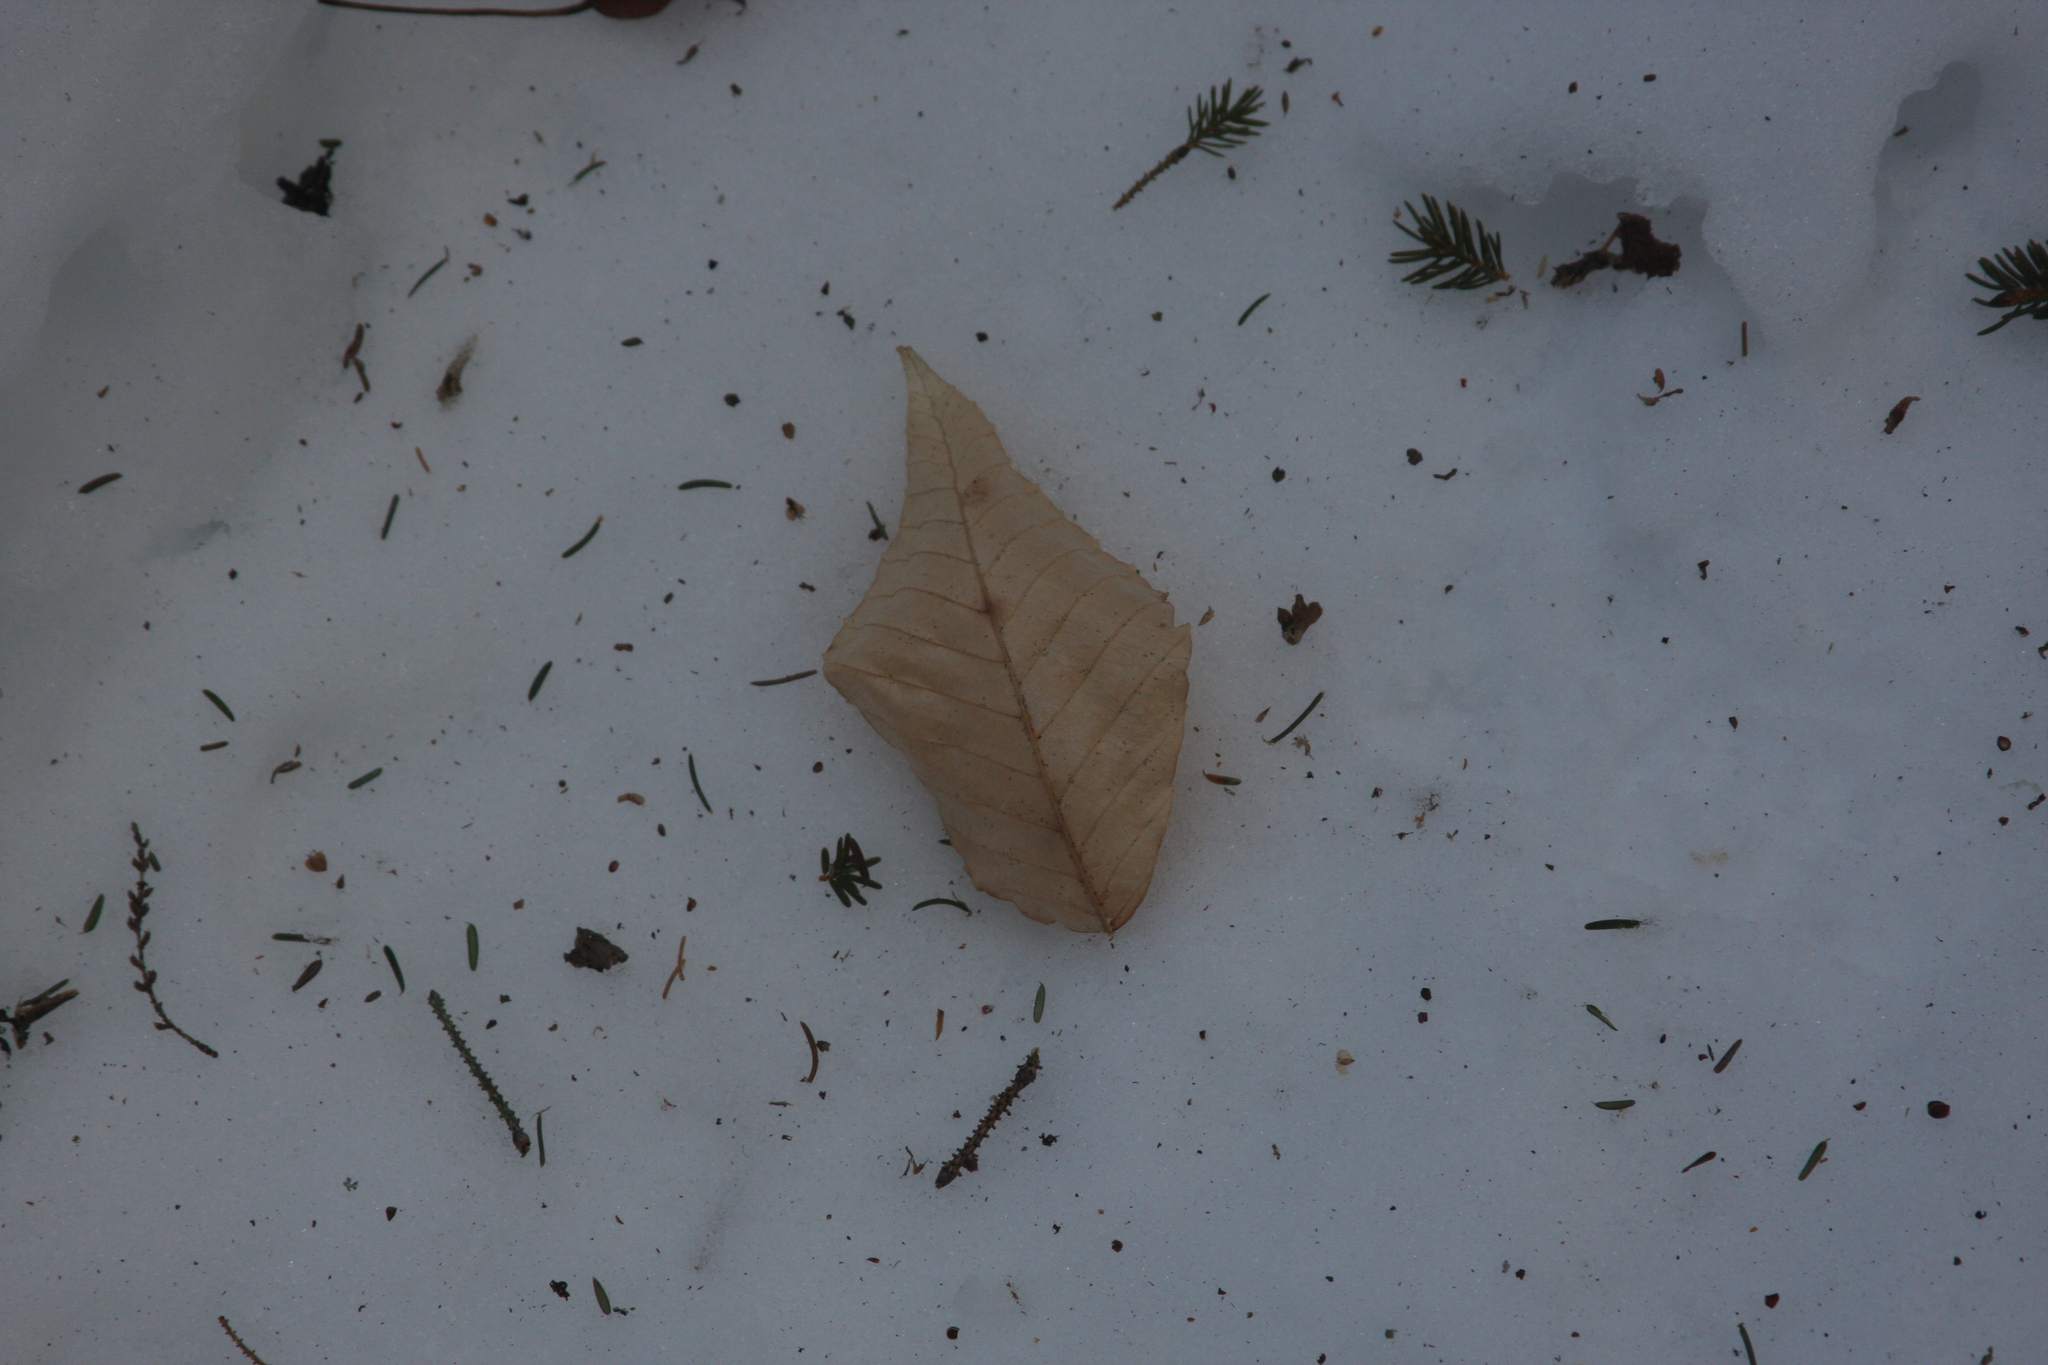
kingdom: Plantae
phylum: Tracheophyta
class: Magnoliopsida
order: Fagales
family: Fagaceae
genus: Fagus
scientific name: Fagus grandifolia
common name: American beech
